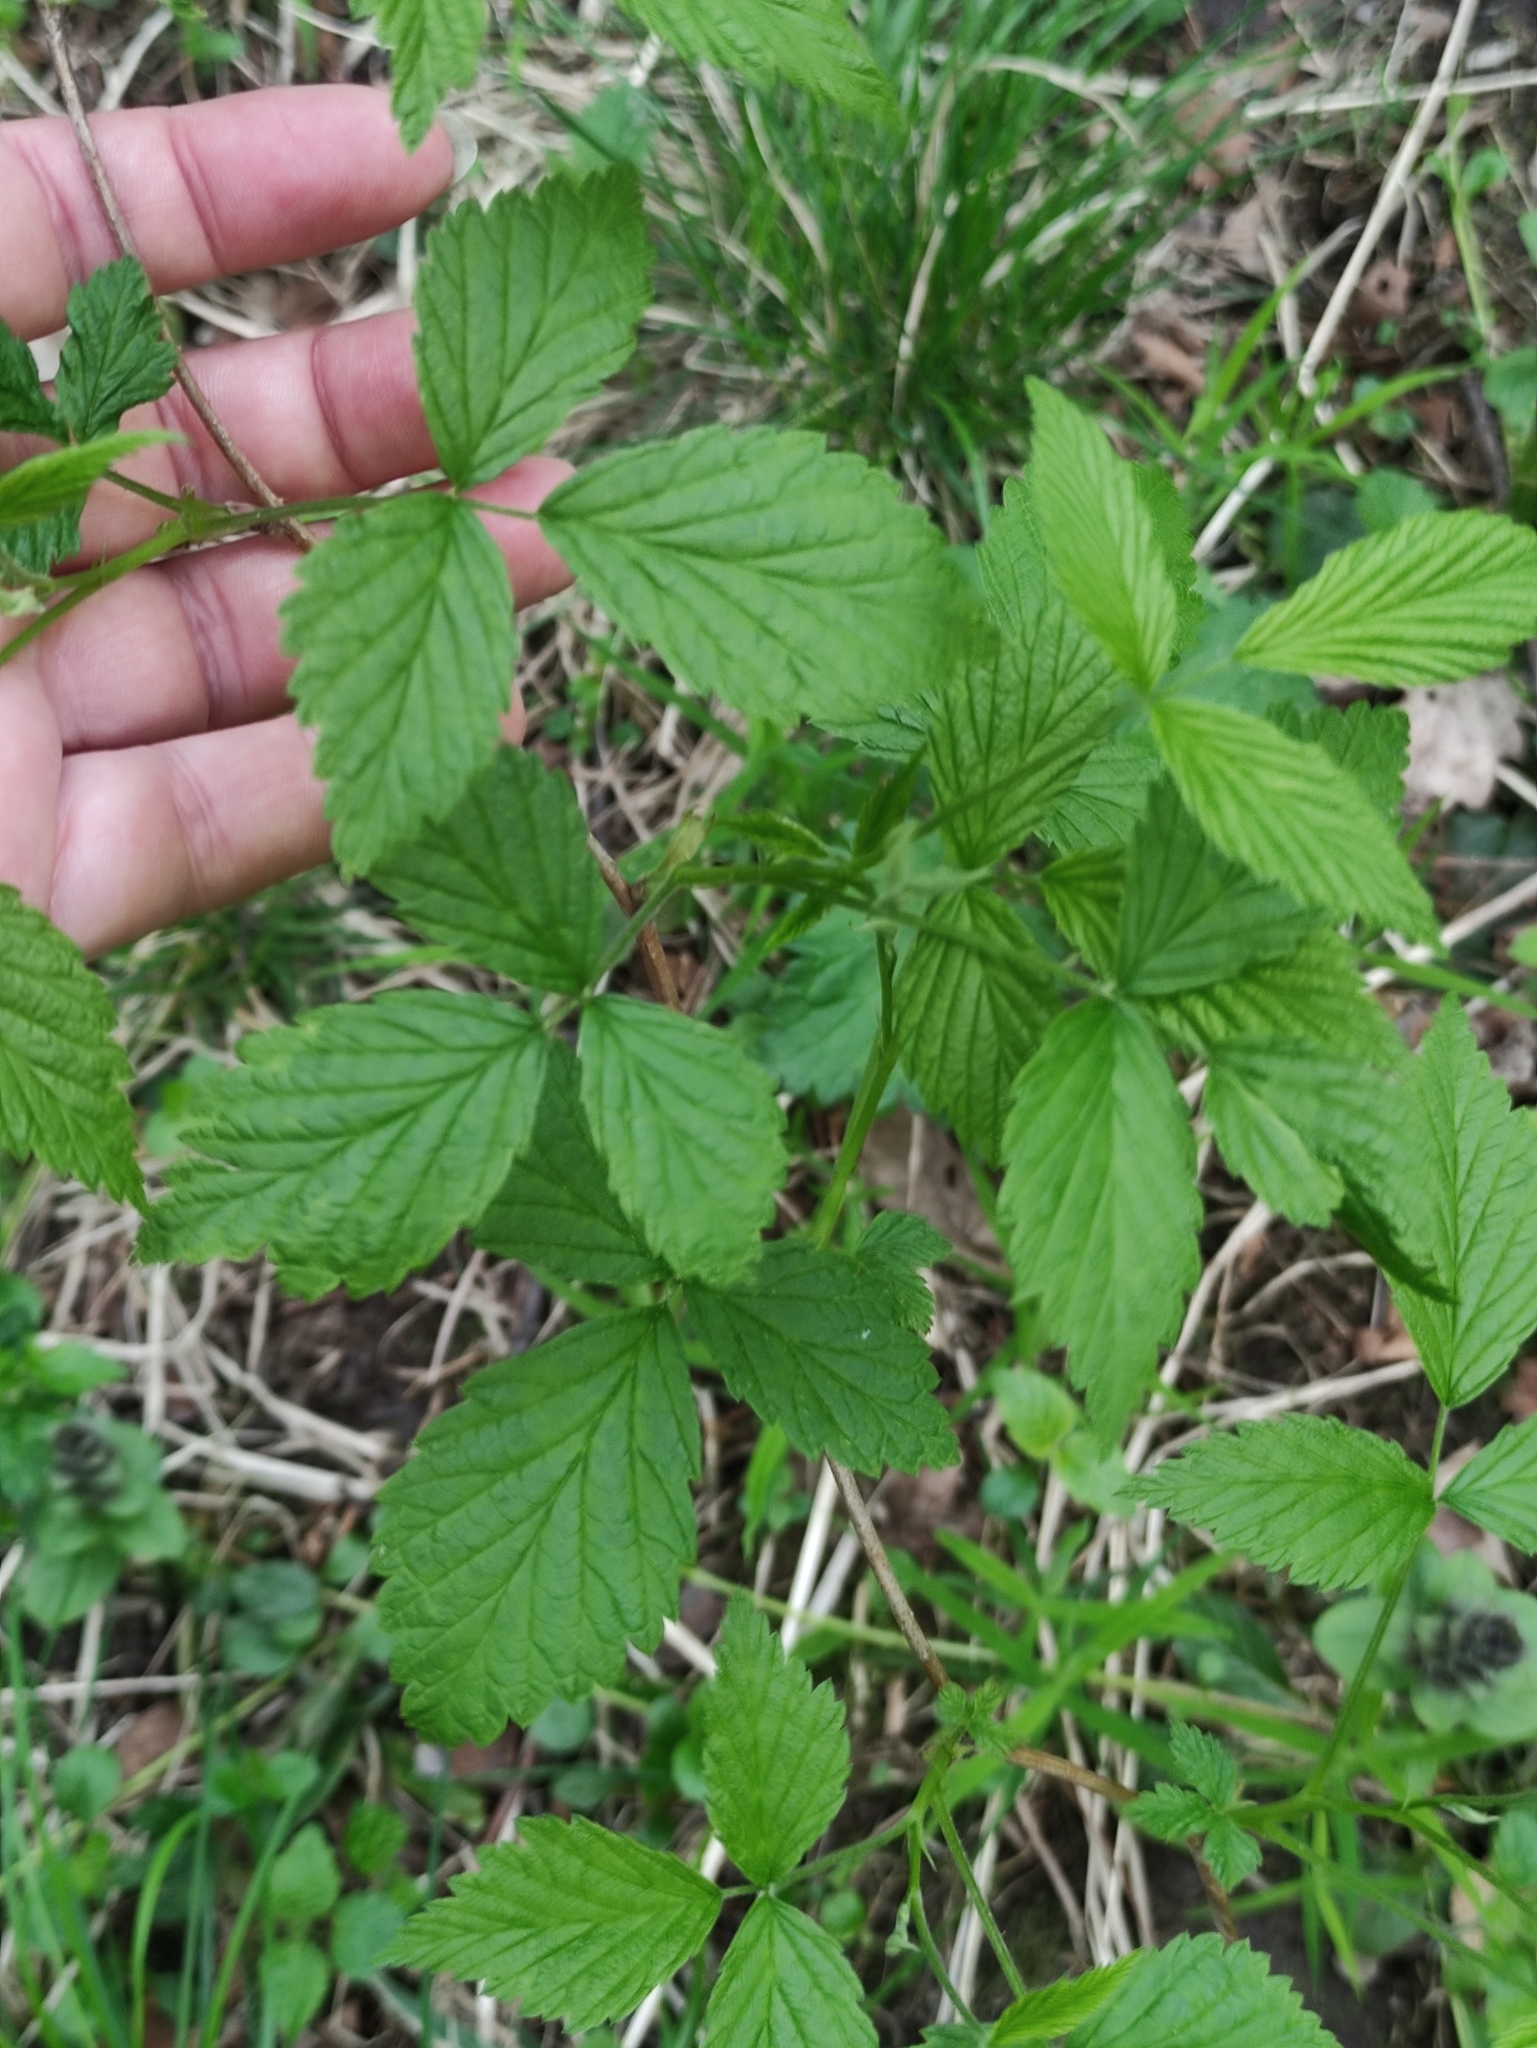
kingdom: Plantae
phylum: Tracheophyta
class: Magnoliopsida
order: Rosales
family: Rosaceae
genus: Rubus
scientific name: Rubus idaeus
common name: Raspberry
